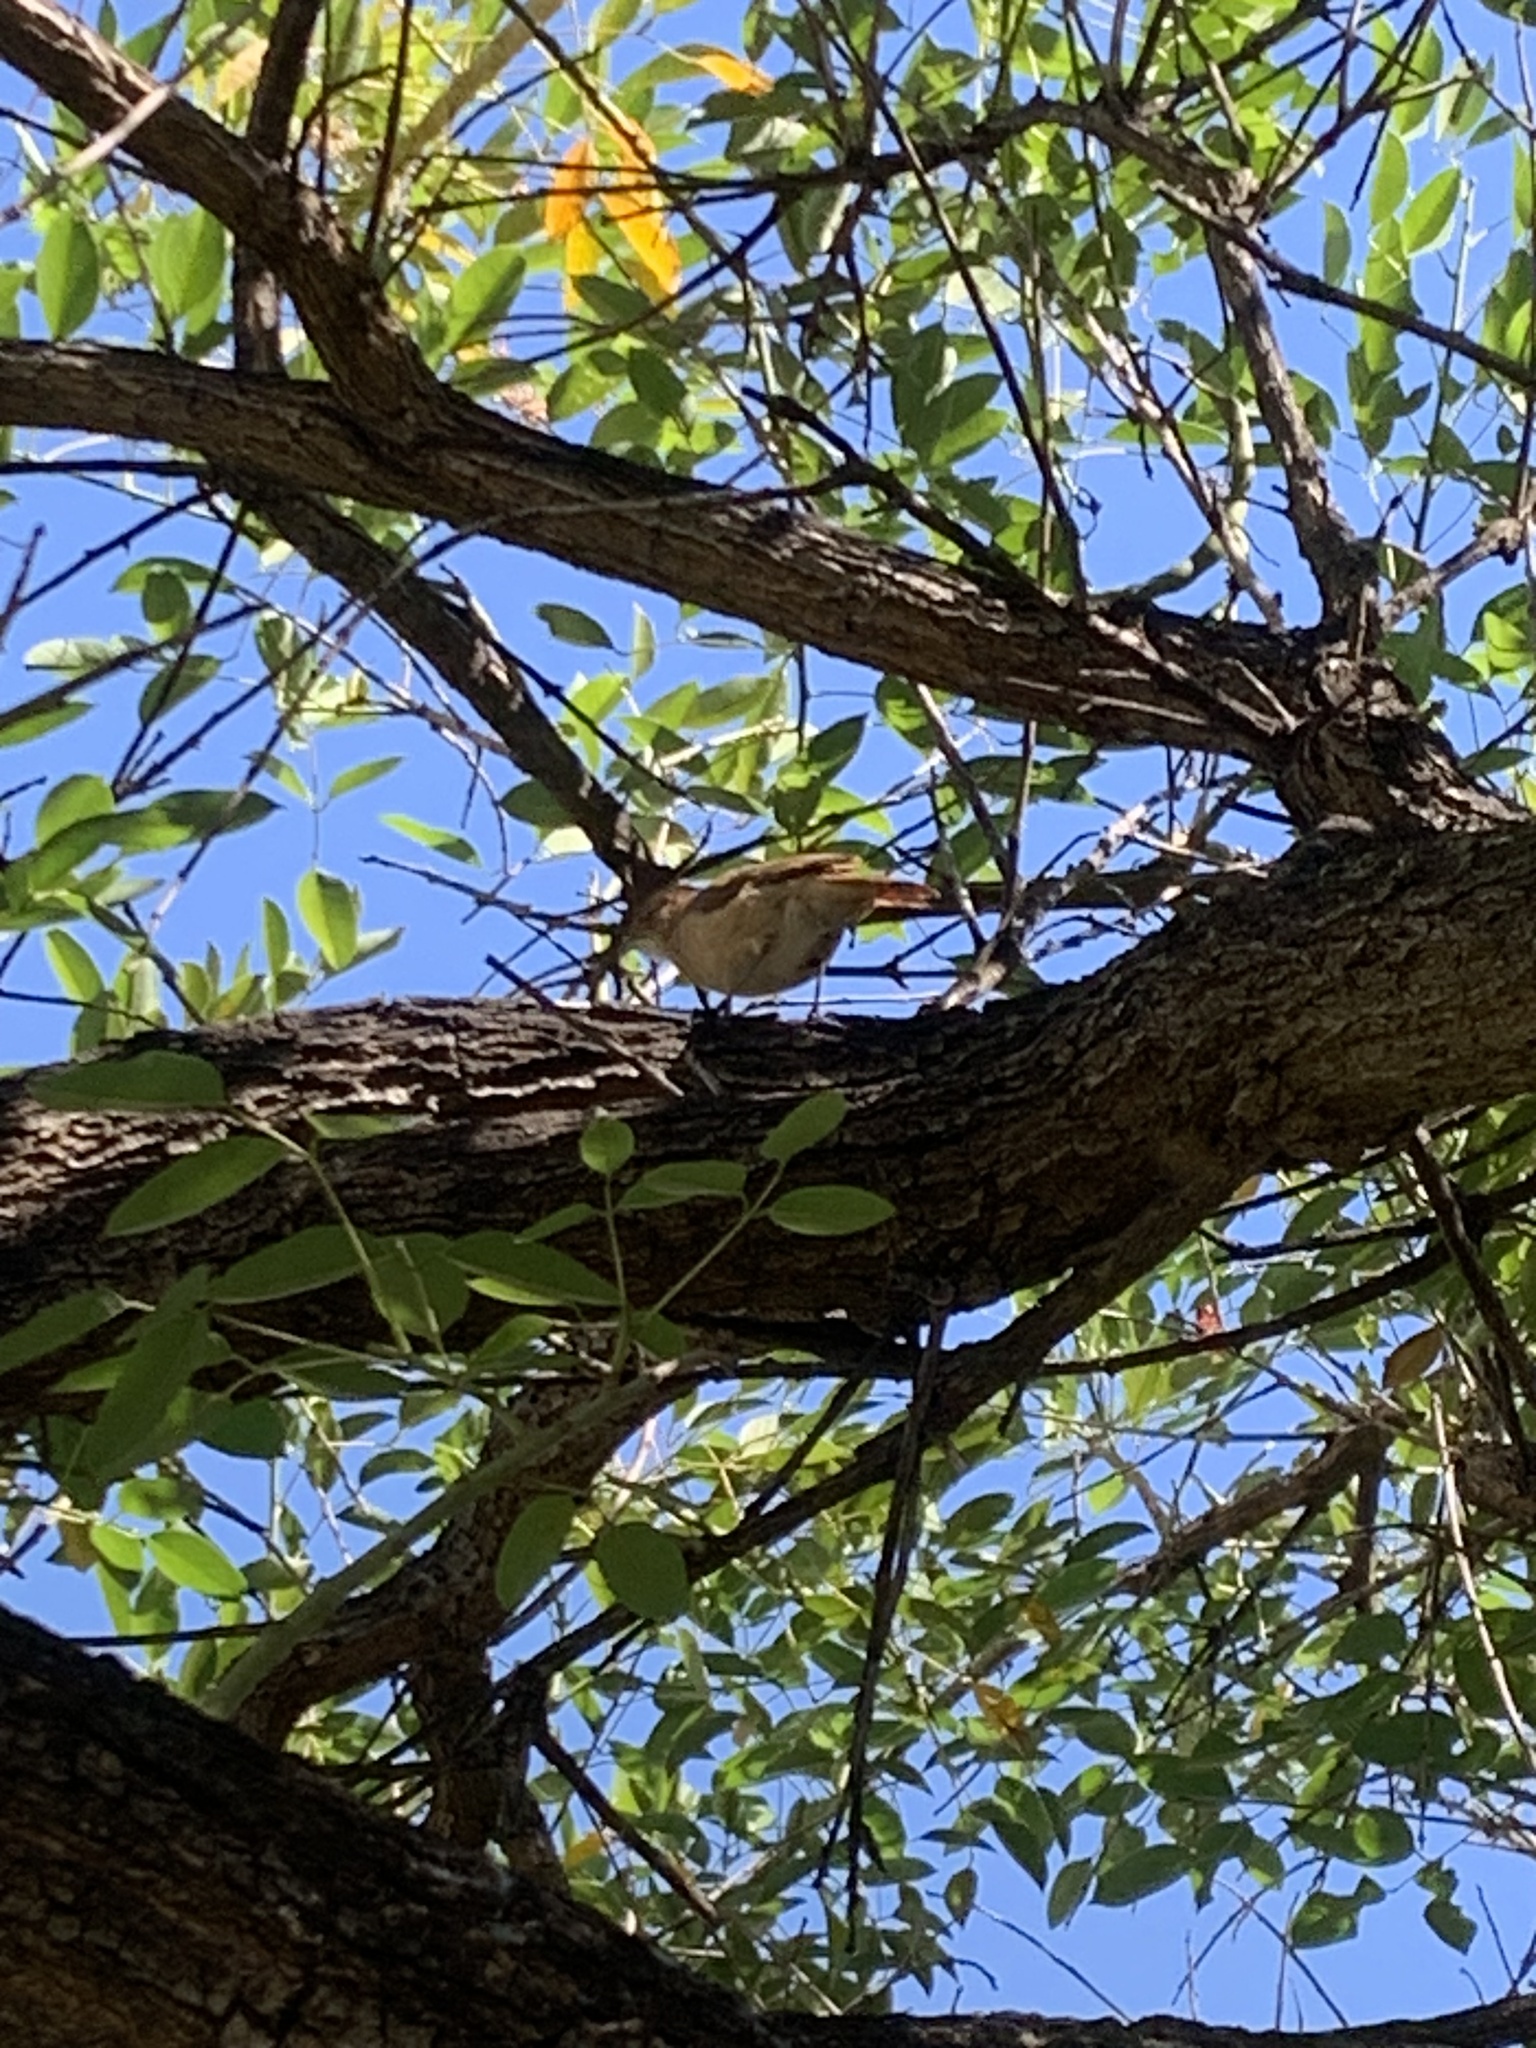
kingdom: Animalia
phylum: Chordata
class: Aves
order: Passeriformes
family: Furnariidae
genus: Furnarius
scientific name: Furnarius rufus
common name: Rufous hornero
